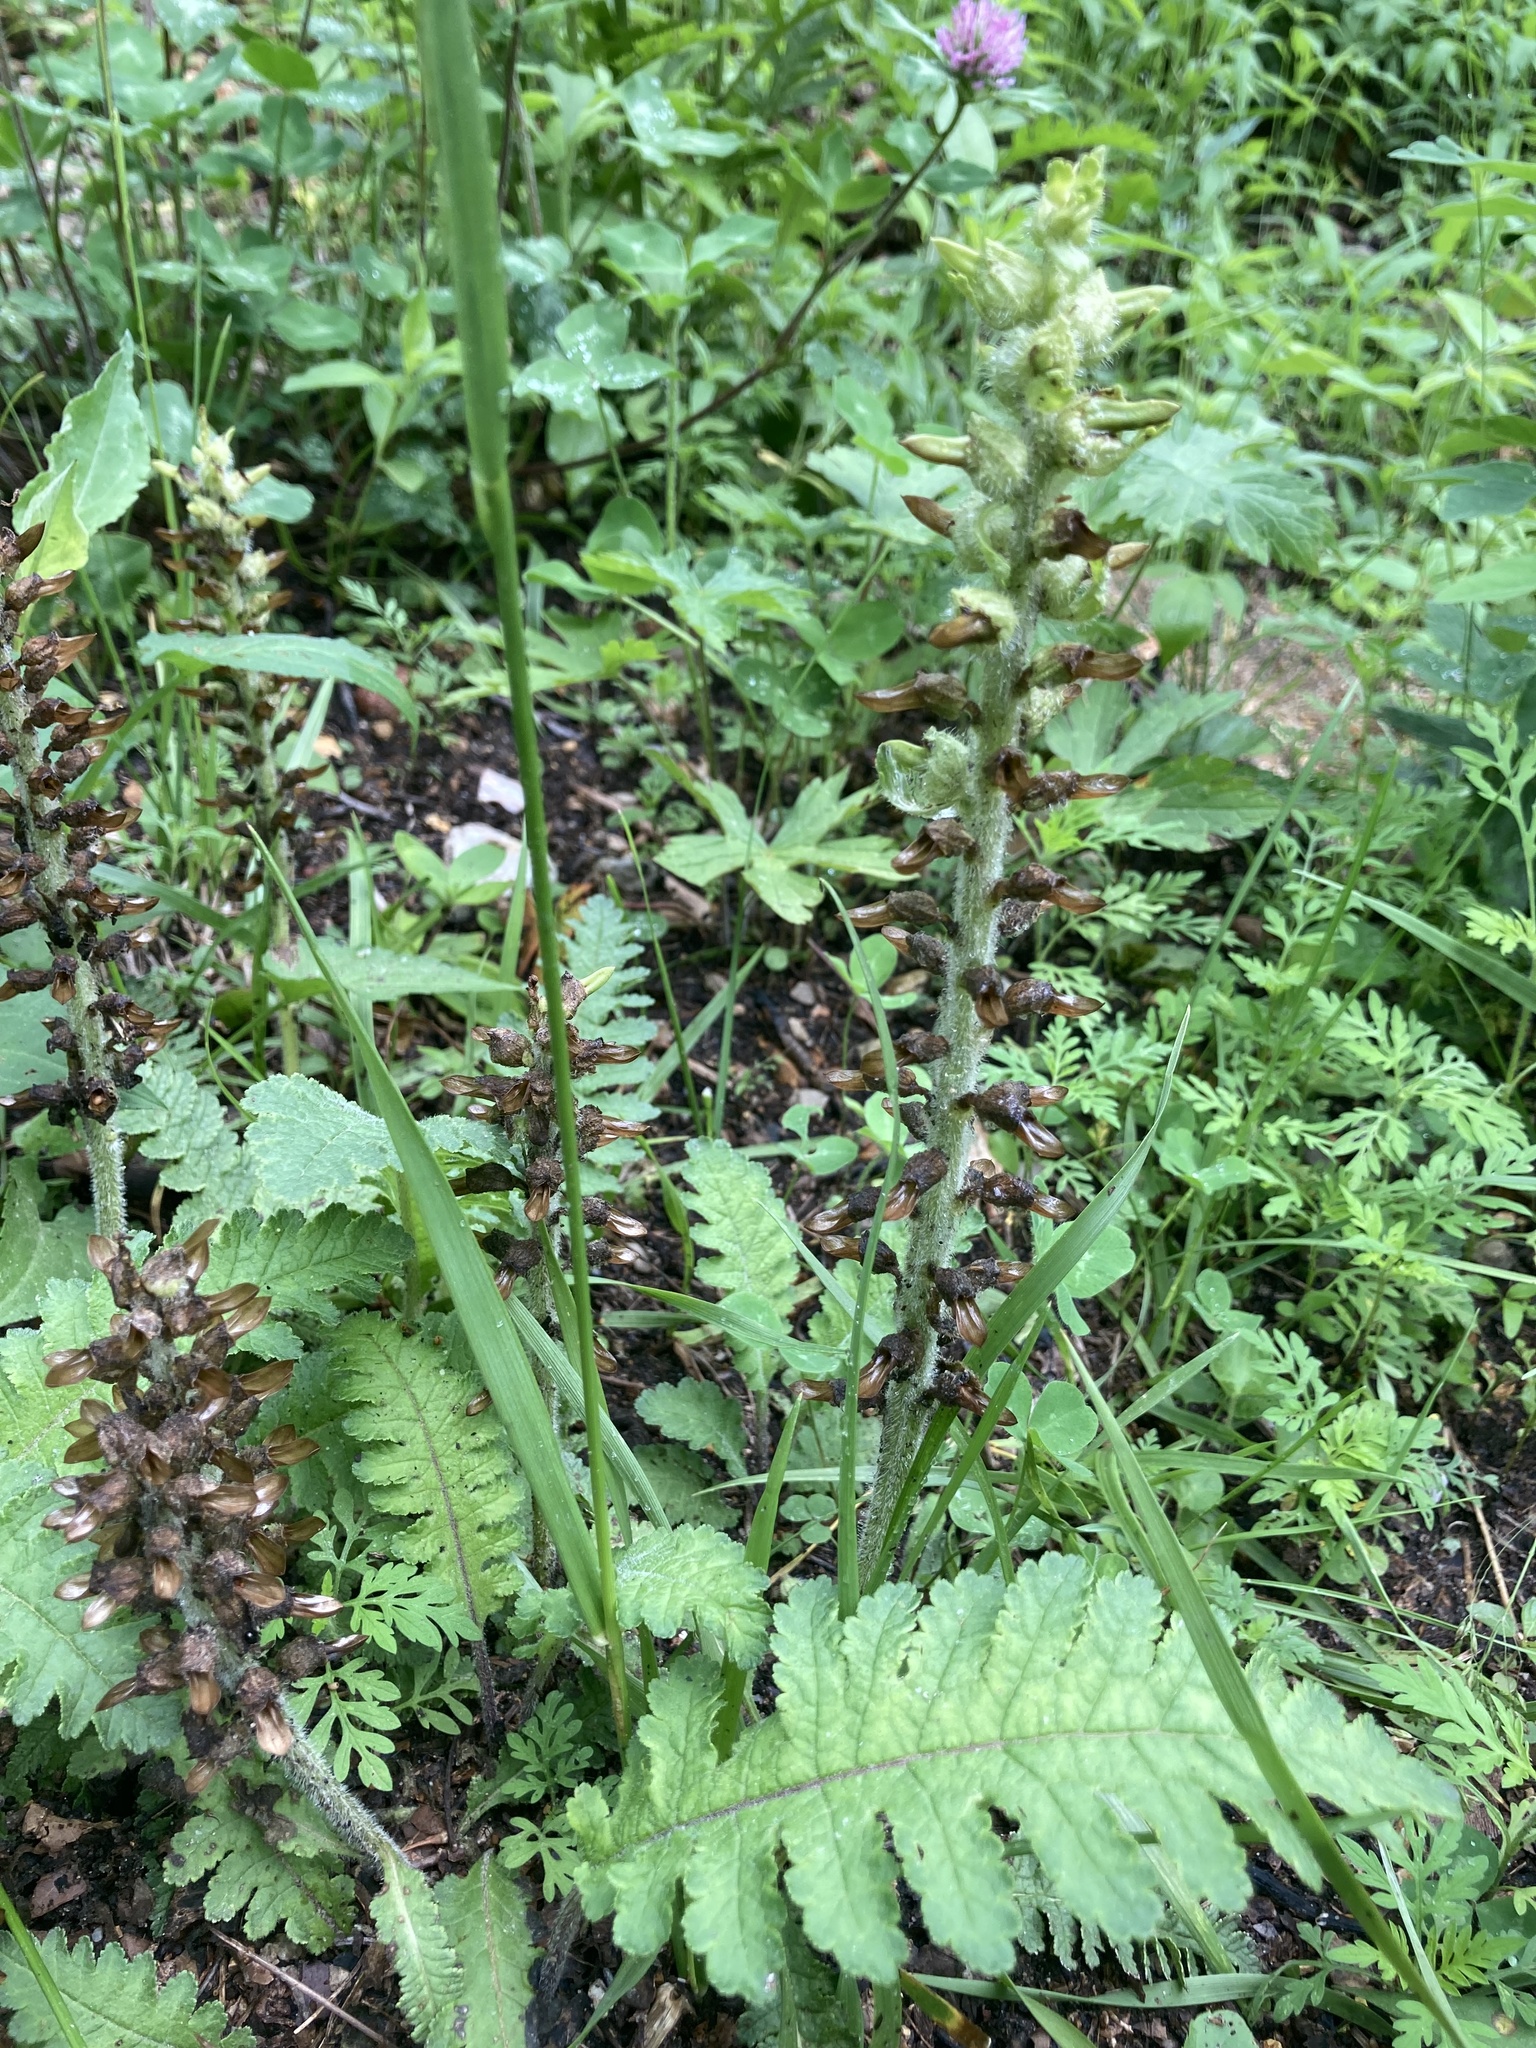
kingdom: Plantae
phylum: Tracheophyta
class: Magnoliopsida
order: Lamiales
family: Orobanchaceae
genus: Pedicularis
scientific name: Pedicularis canadensis
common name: Early lousewort
